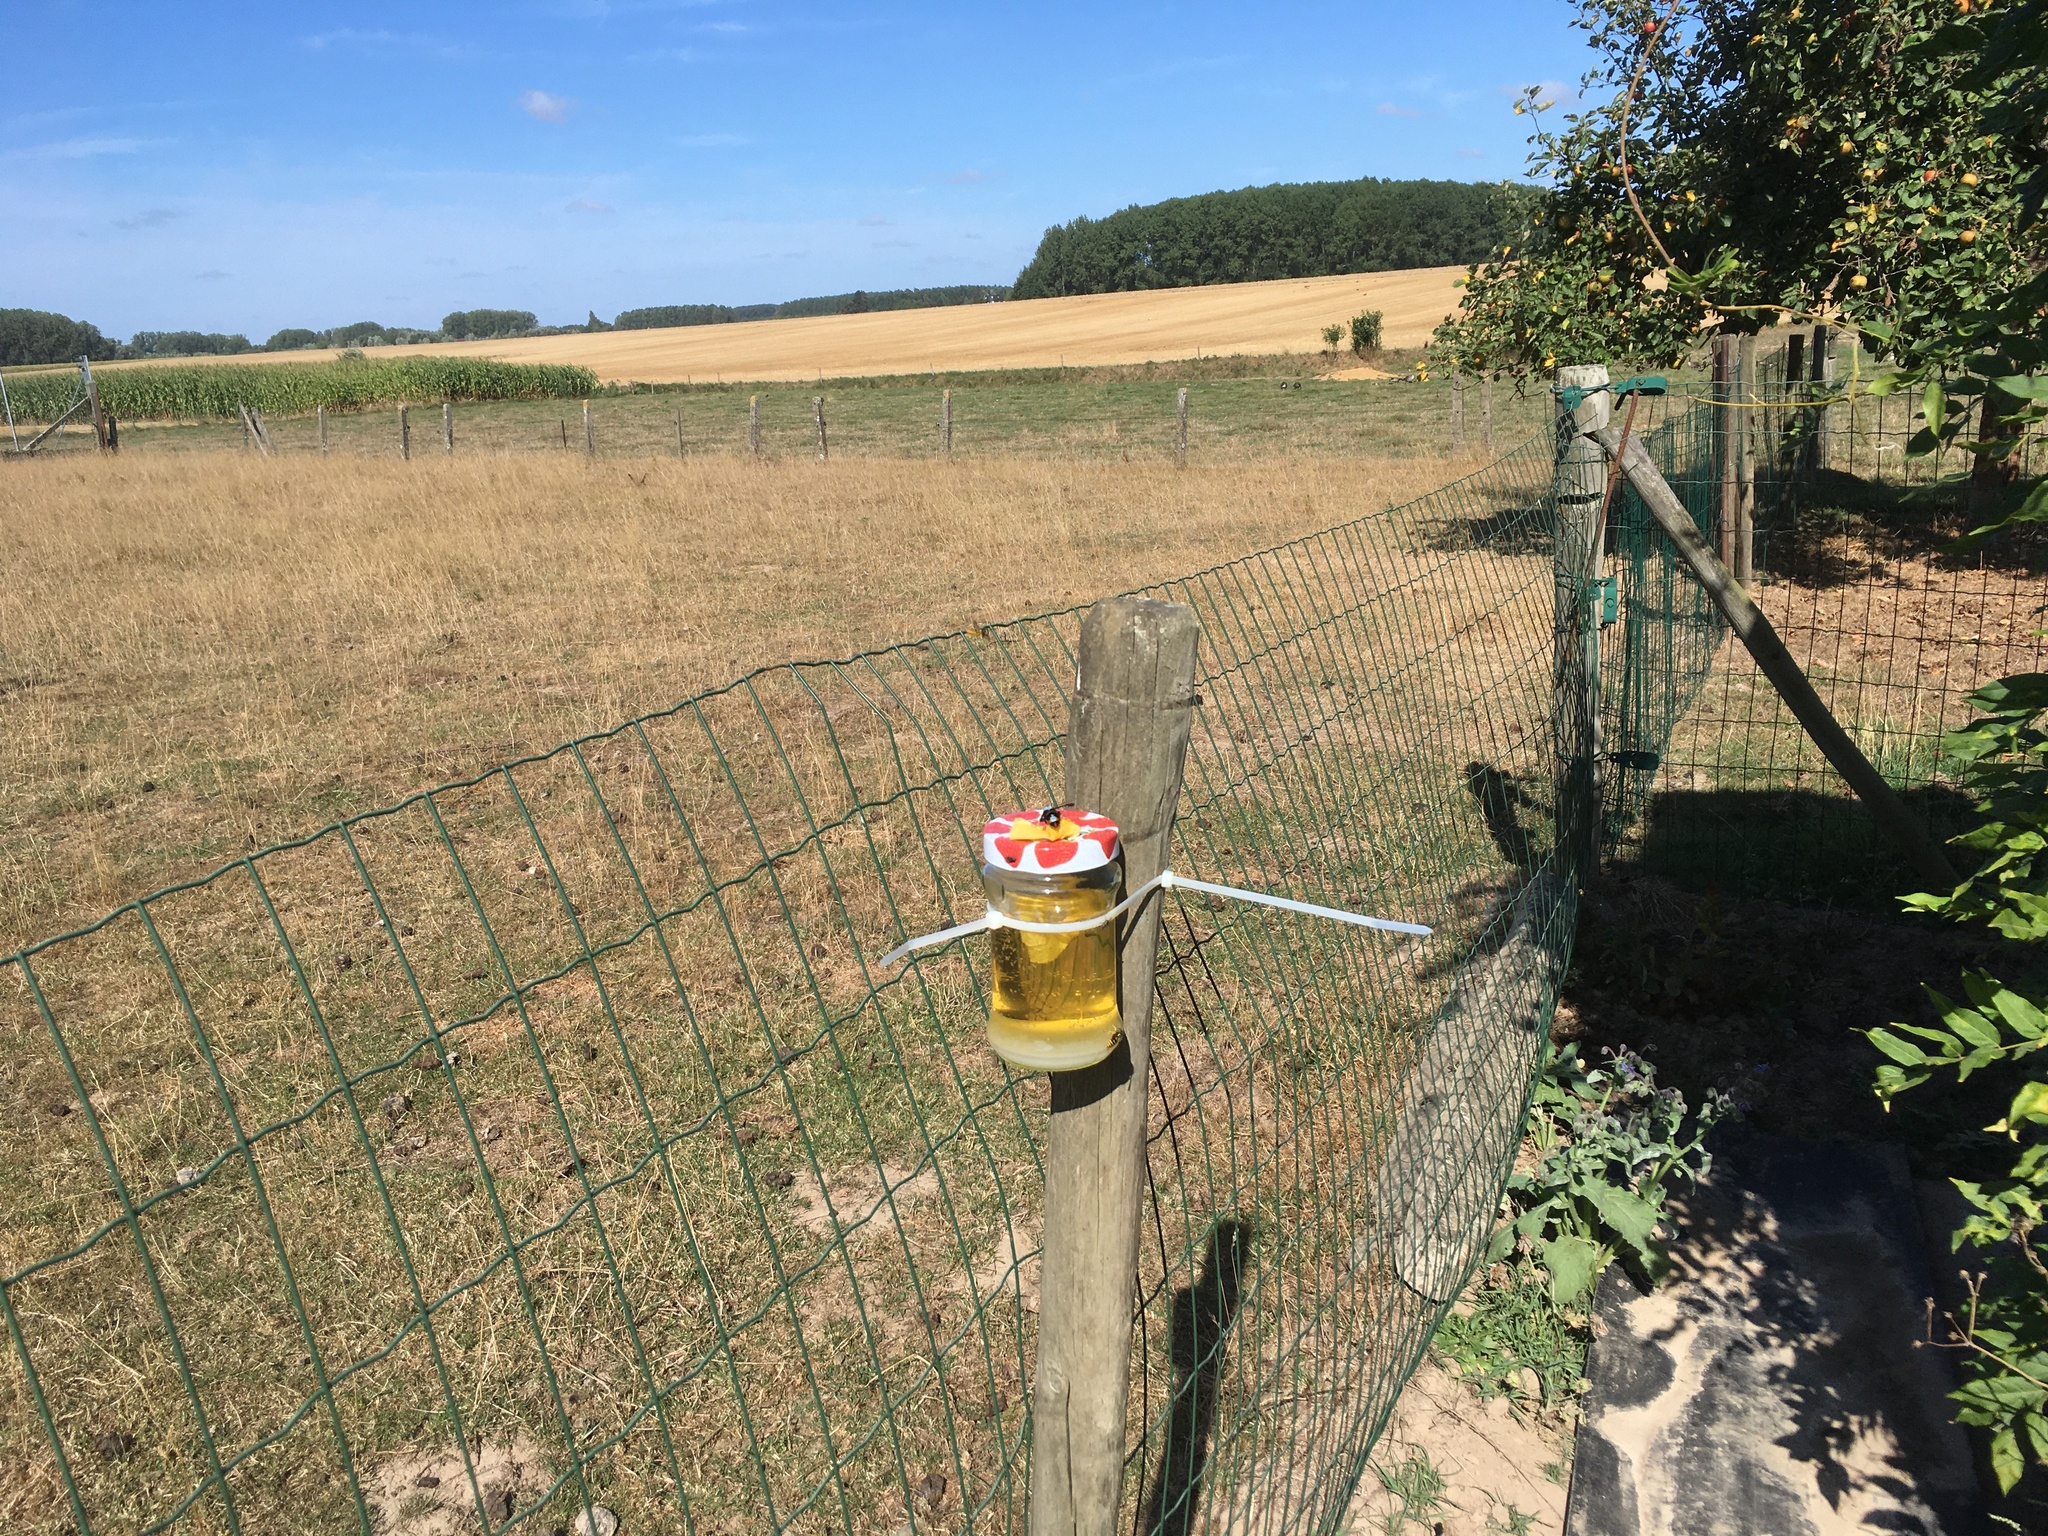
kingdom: Animalia
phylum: Arthropoda
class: Insecta
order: Hymenoptera
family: Vespidae
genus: Vespa
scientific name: Vespa velutina
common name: Asian hornet
